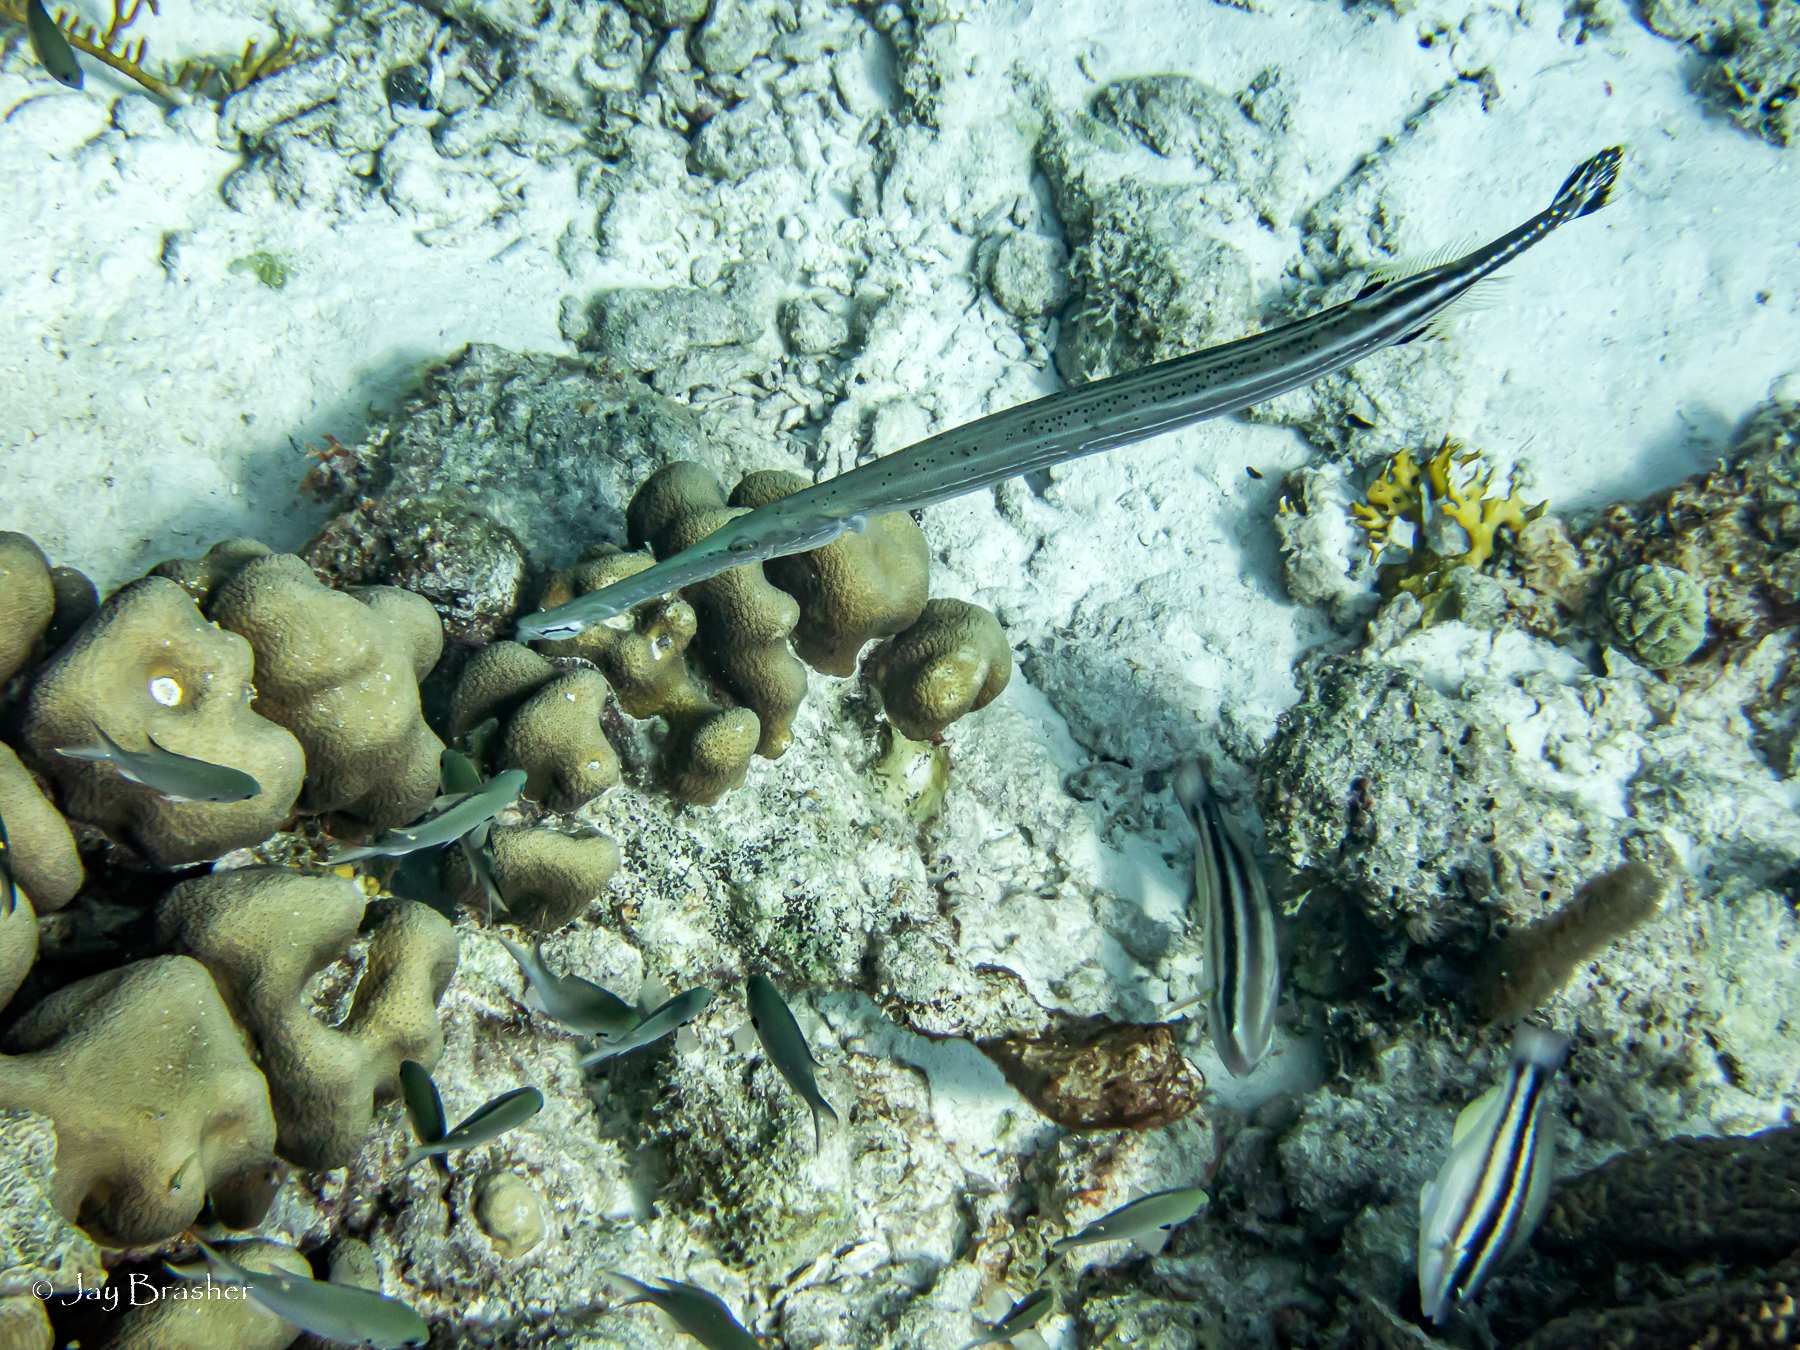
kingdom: Animalia
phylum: Cnidaria
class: Anthozoa
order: Scleractinia
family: Merulinidae
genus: Orbicella
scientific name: Orbicella annularis
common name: Boulder star coral
